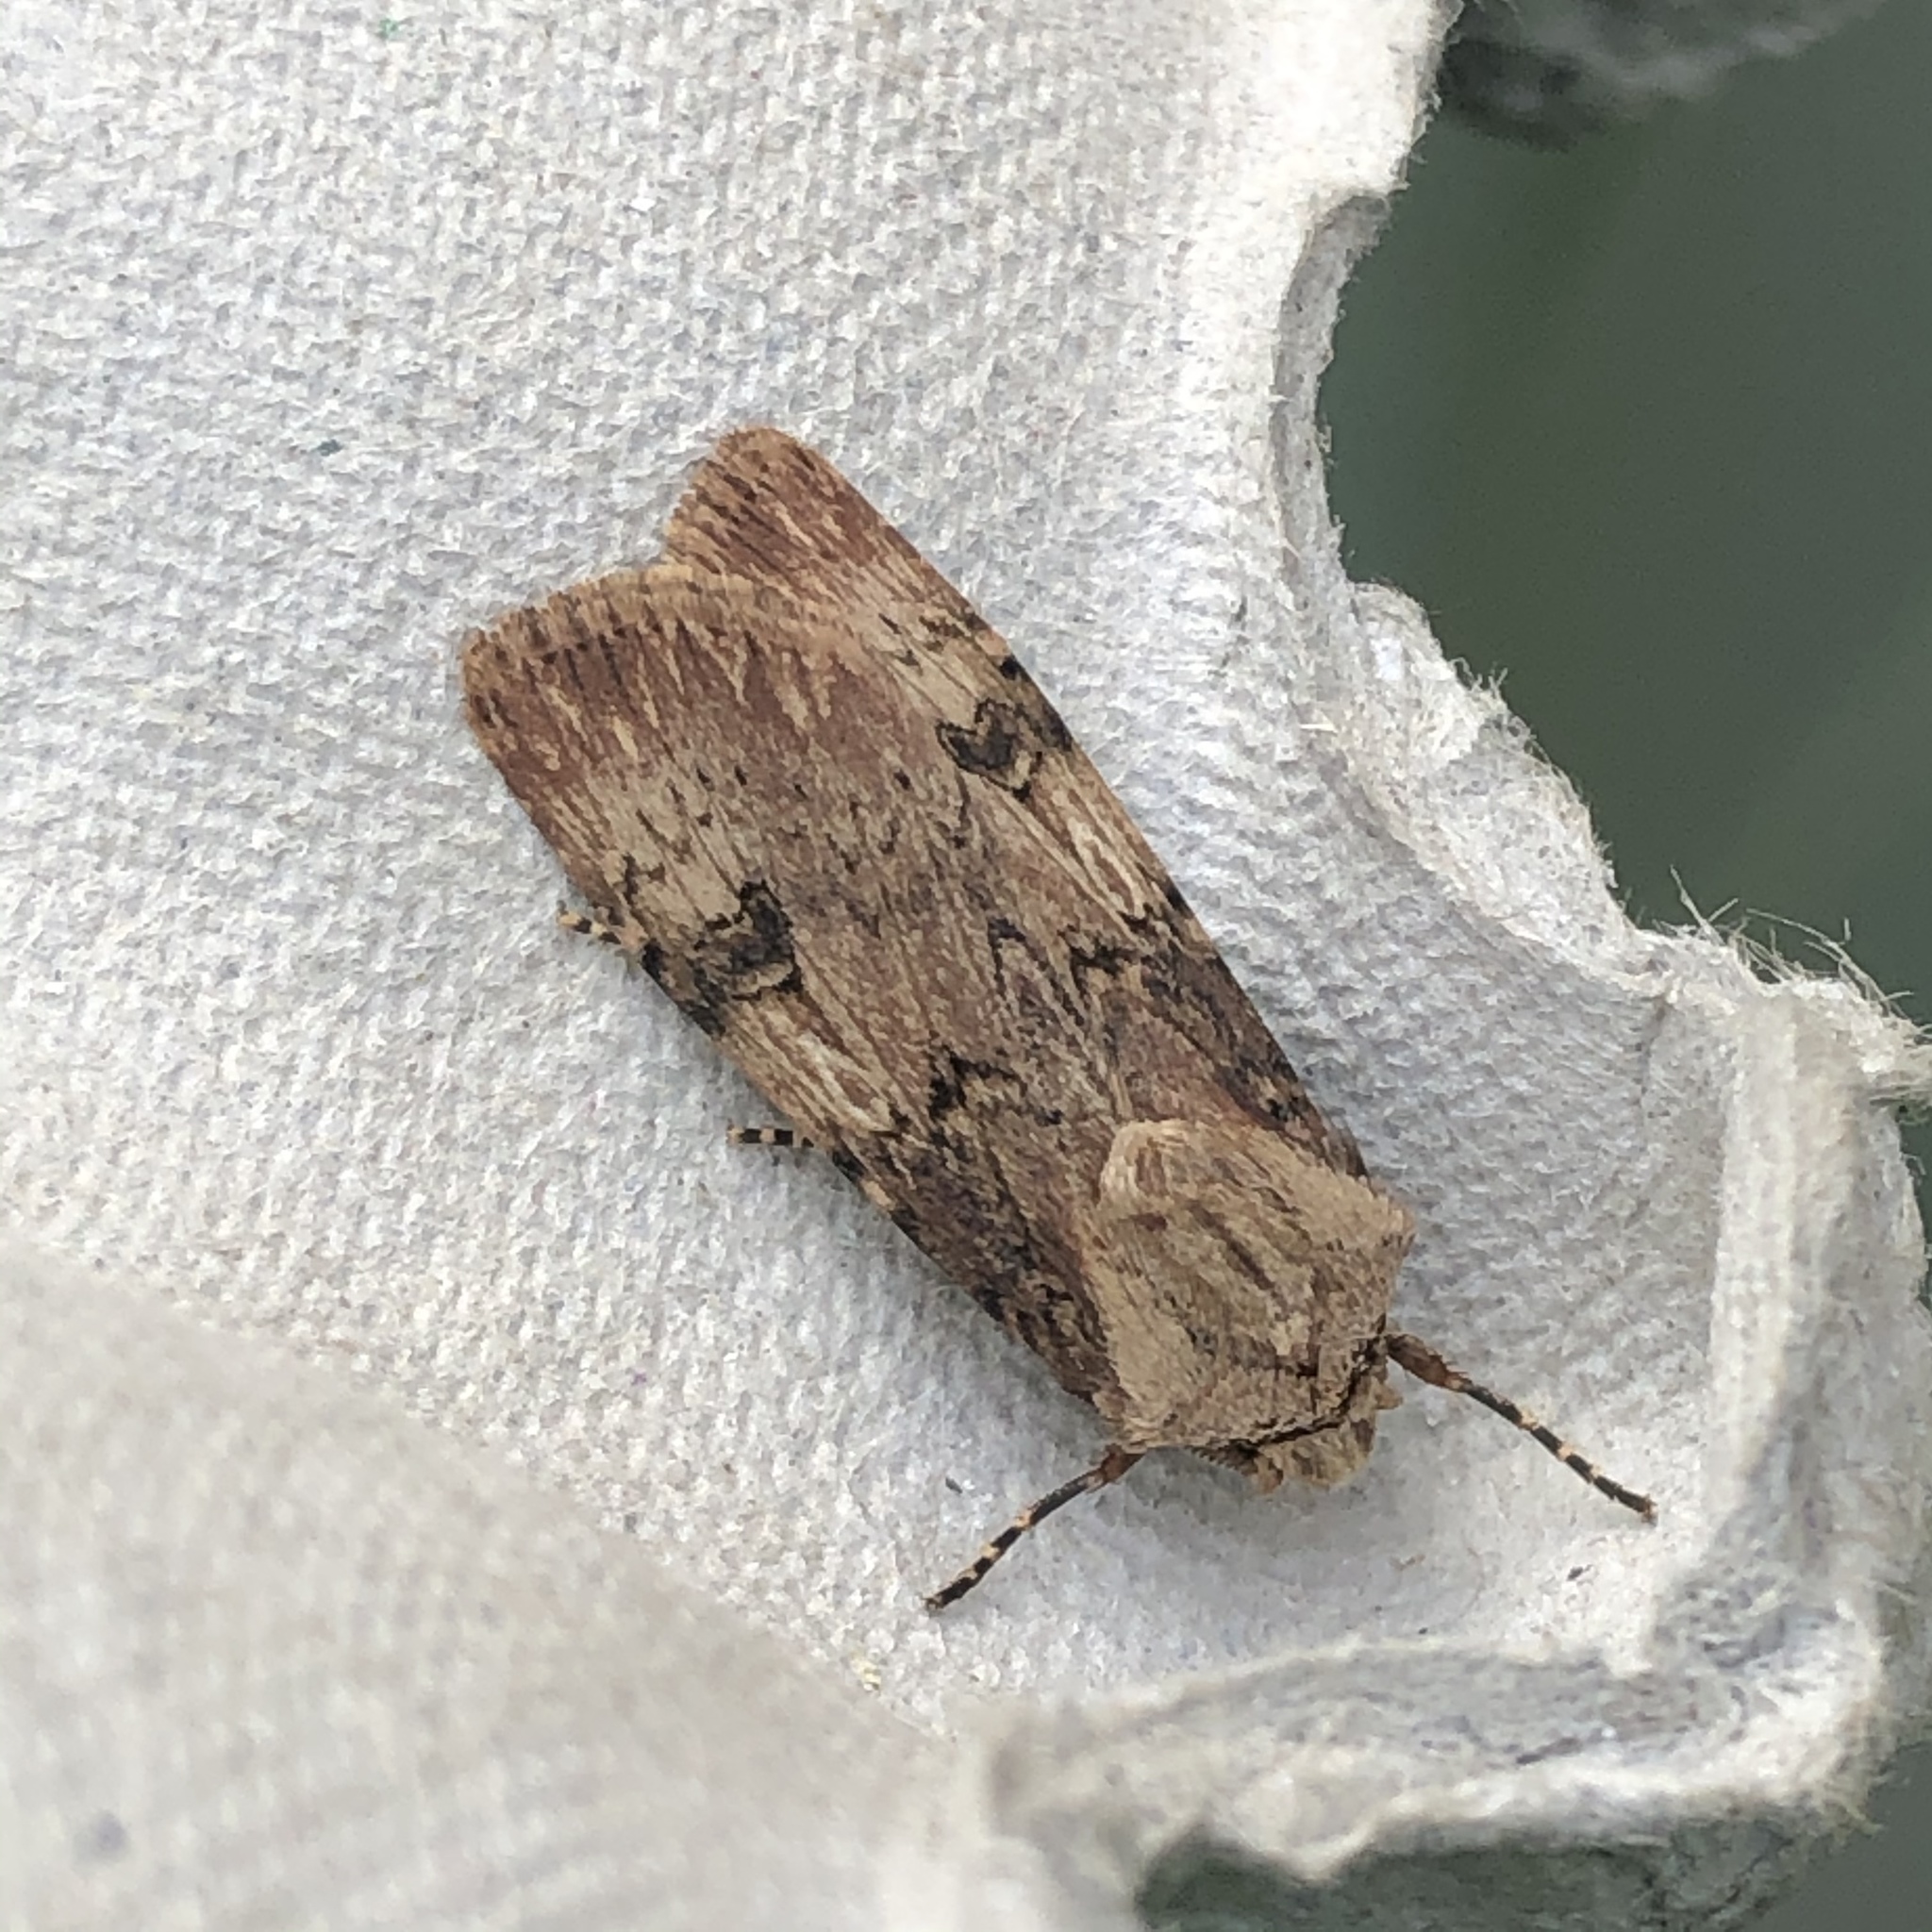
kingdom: Animalia
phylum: Arthropoda
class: Insecta
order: Lepidoptera
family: Noctuidae
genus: Agrotis
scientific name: Agrotis puta
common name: Shuttle-shaped dart
